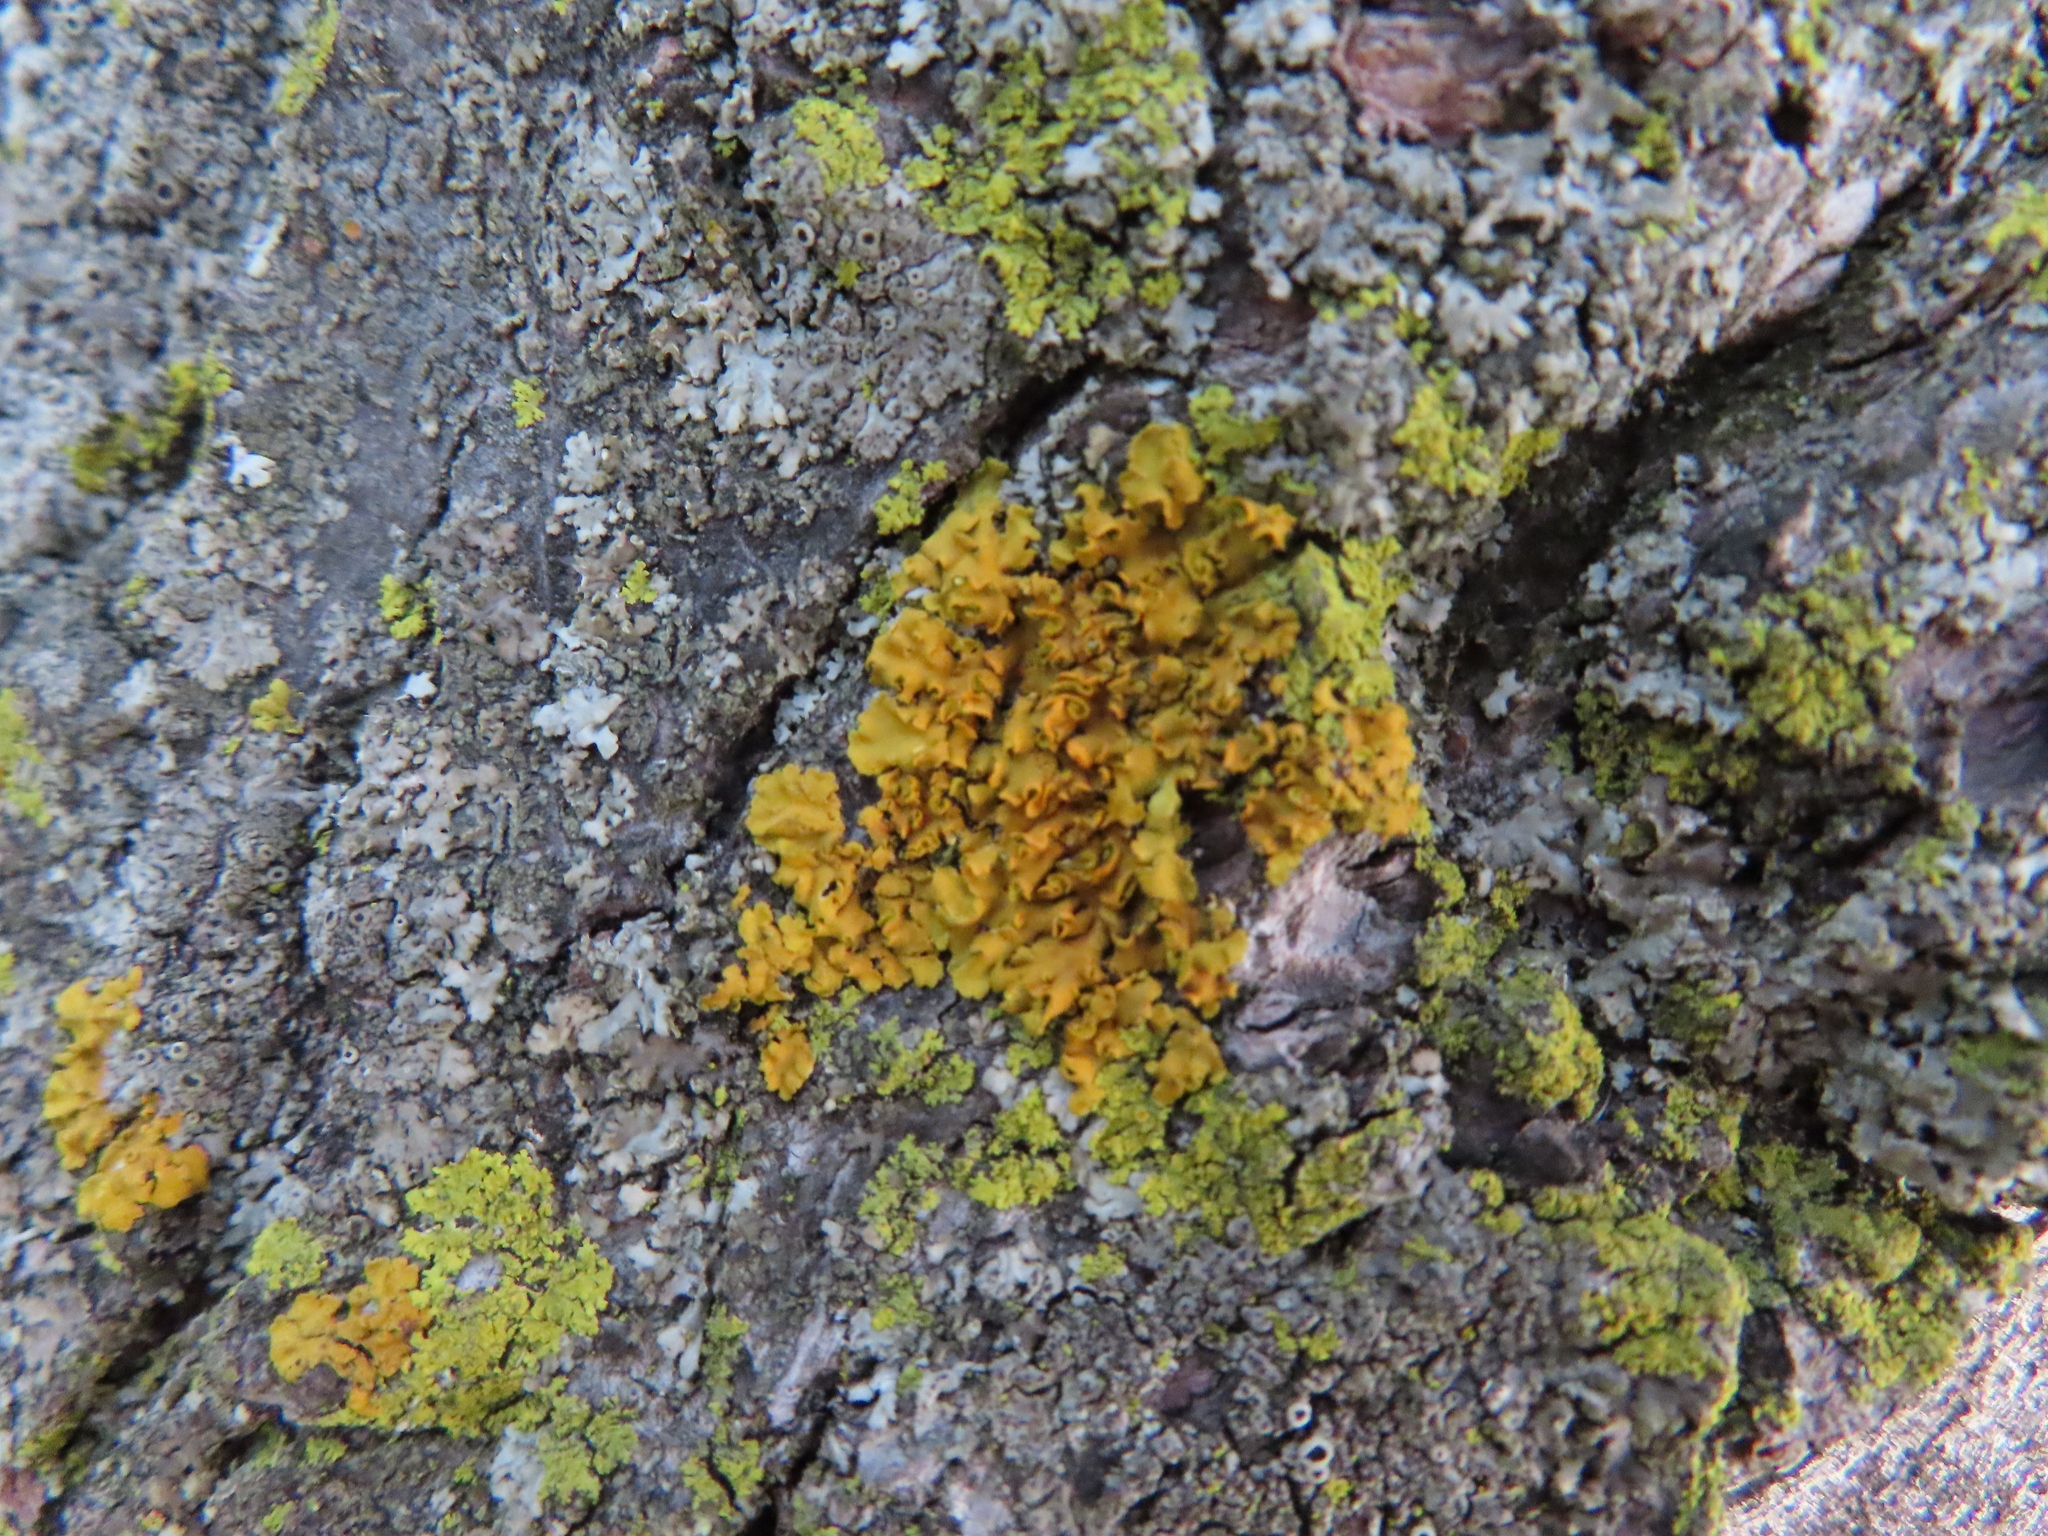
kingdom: Fungi
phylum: Ascomycota
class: Lecanoromycetes
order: Teloschistales
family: Teloschistaceae
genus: Oxneria
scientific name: Oxneria fallax
